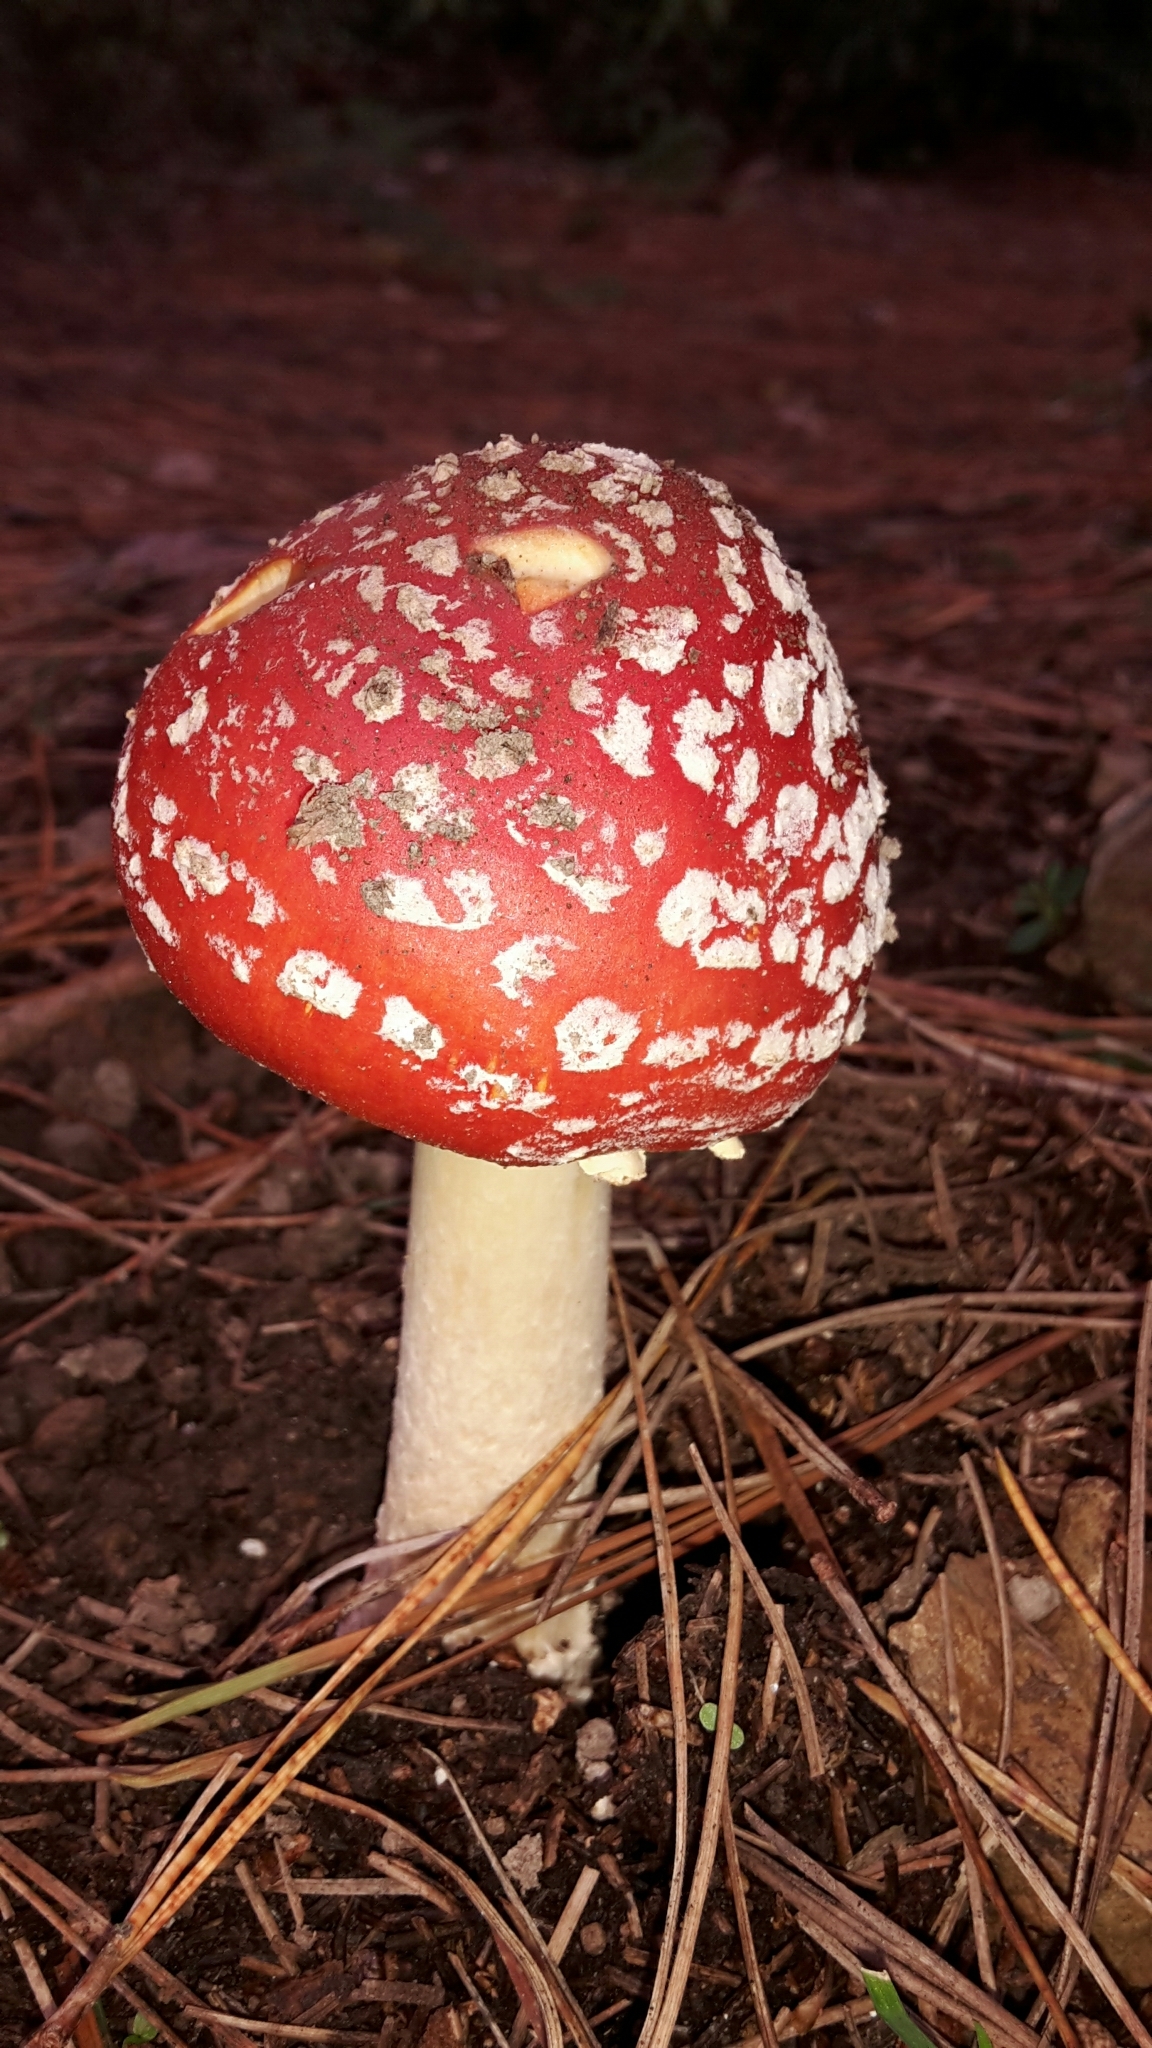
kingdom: Fungi
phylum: Basidiomycota
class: Agaricomycetes
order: Agaricales
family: Amanitaceae
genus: Amanita
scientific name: Amanita muscaria
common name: Fly agaric
